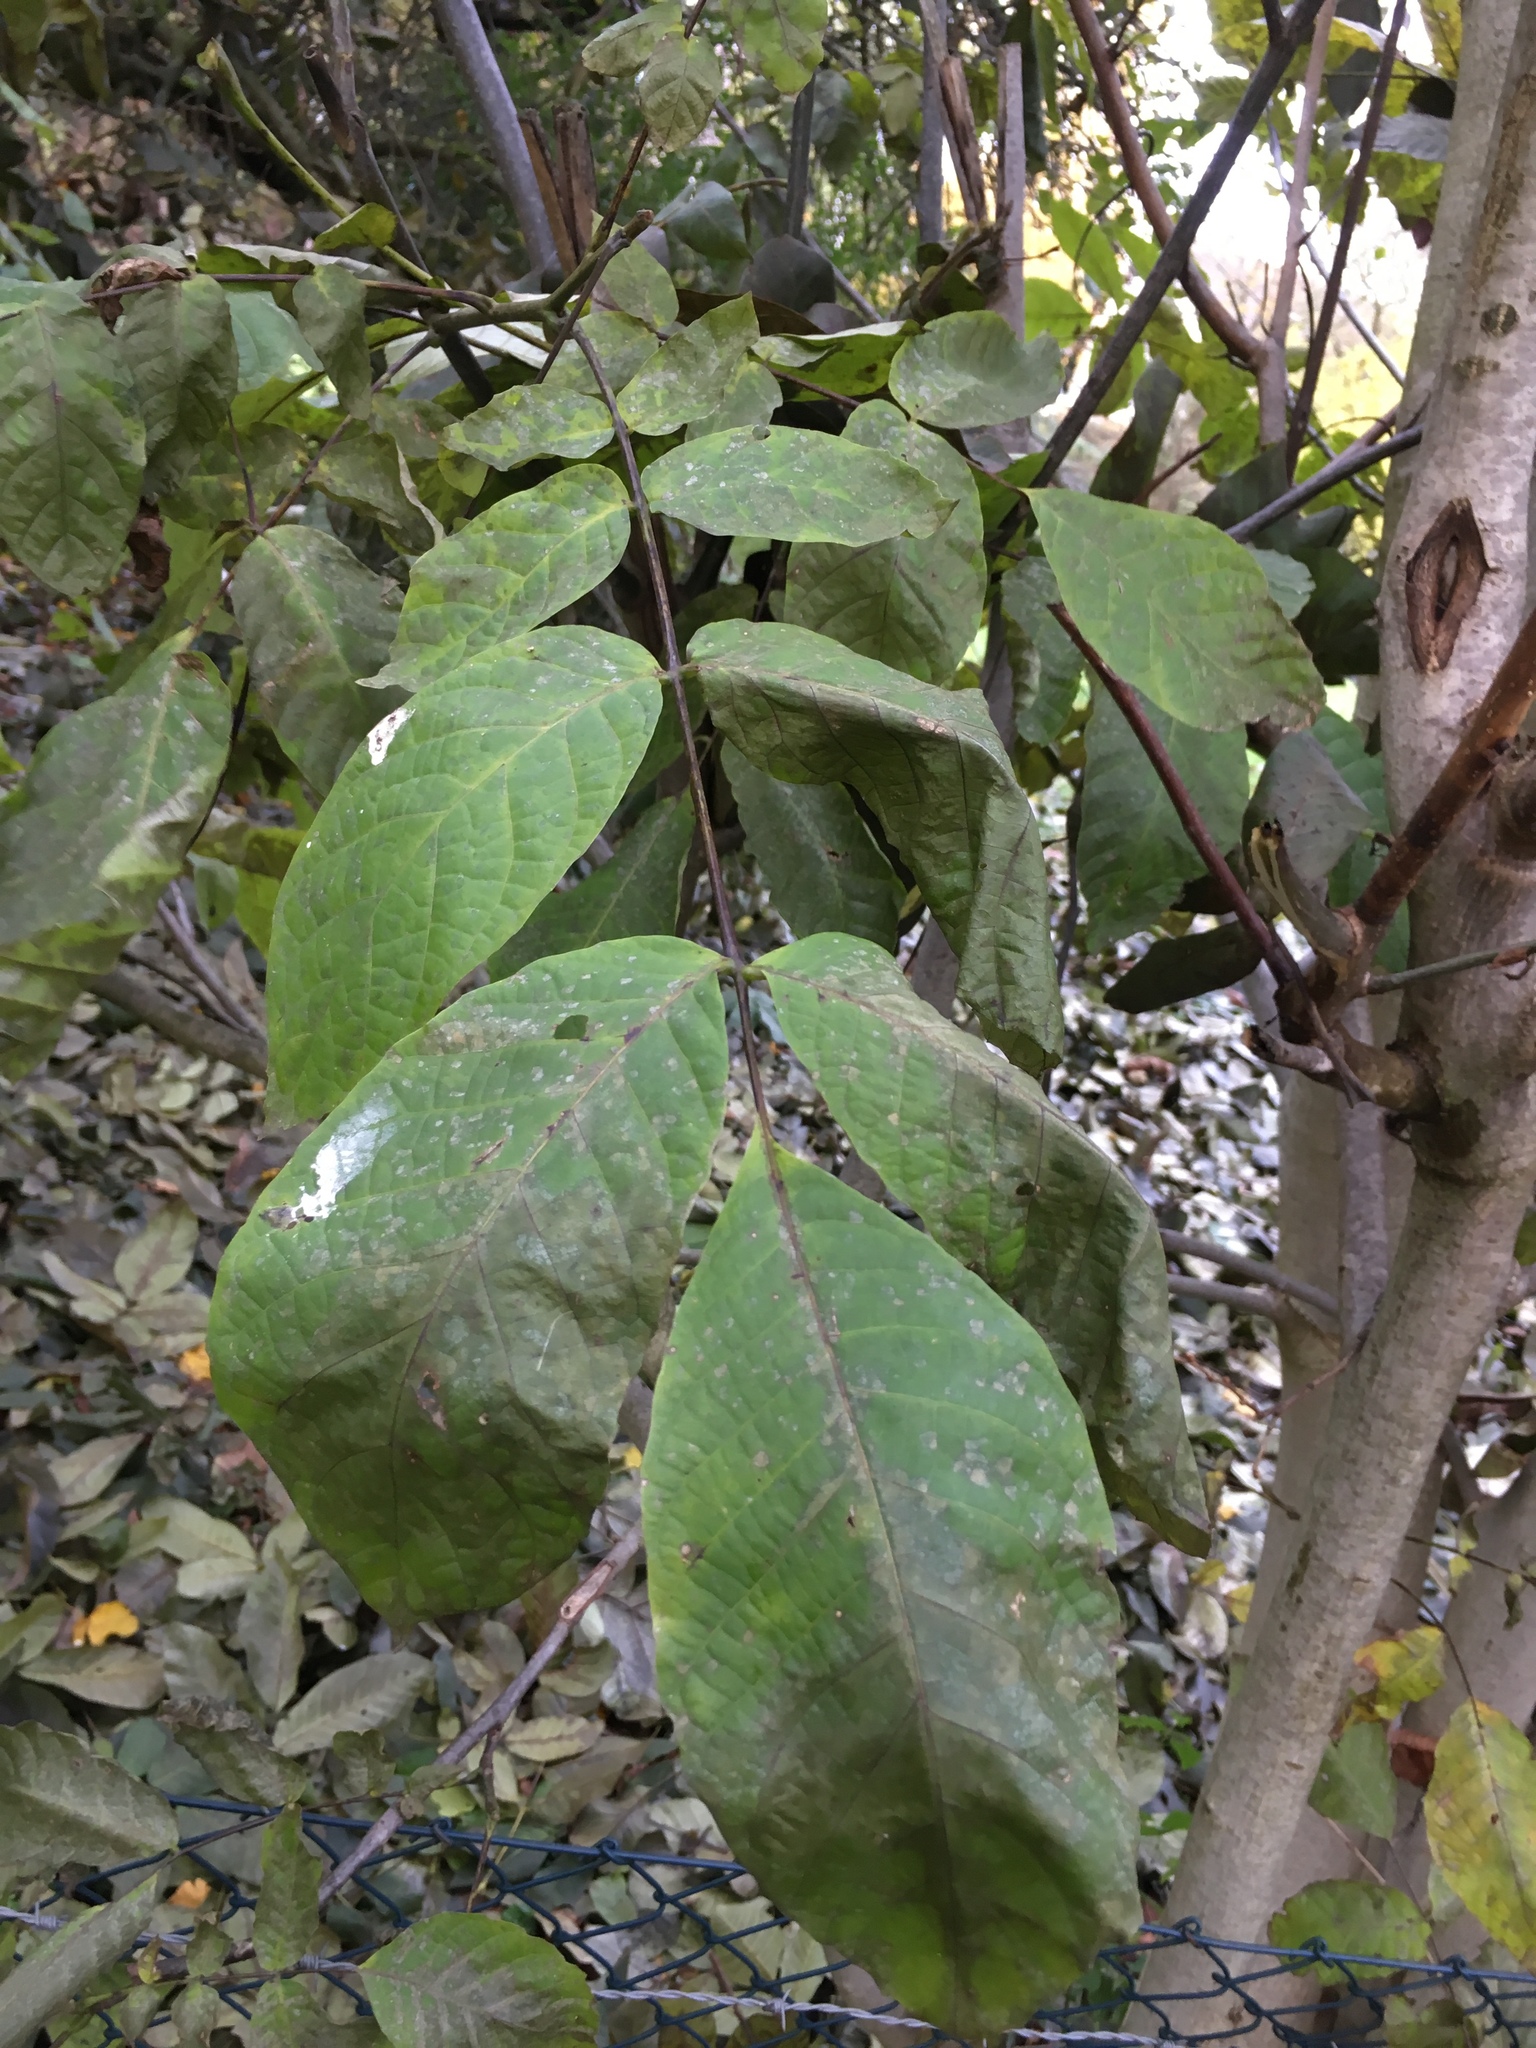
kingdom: Plantae
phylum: Tracheophyta
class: Magnoliopsida
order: Fagales
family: Juglandaceae
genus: Juglans
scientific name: Juglans regia
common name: Walnut
